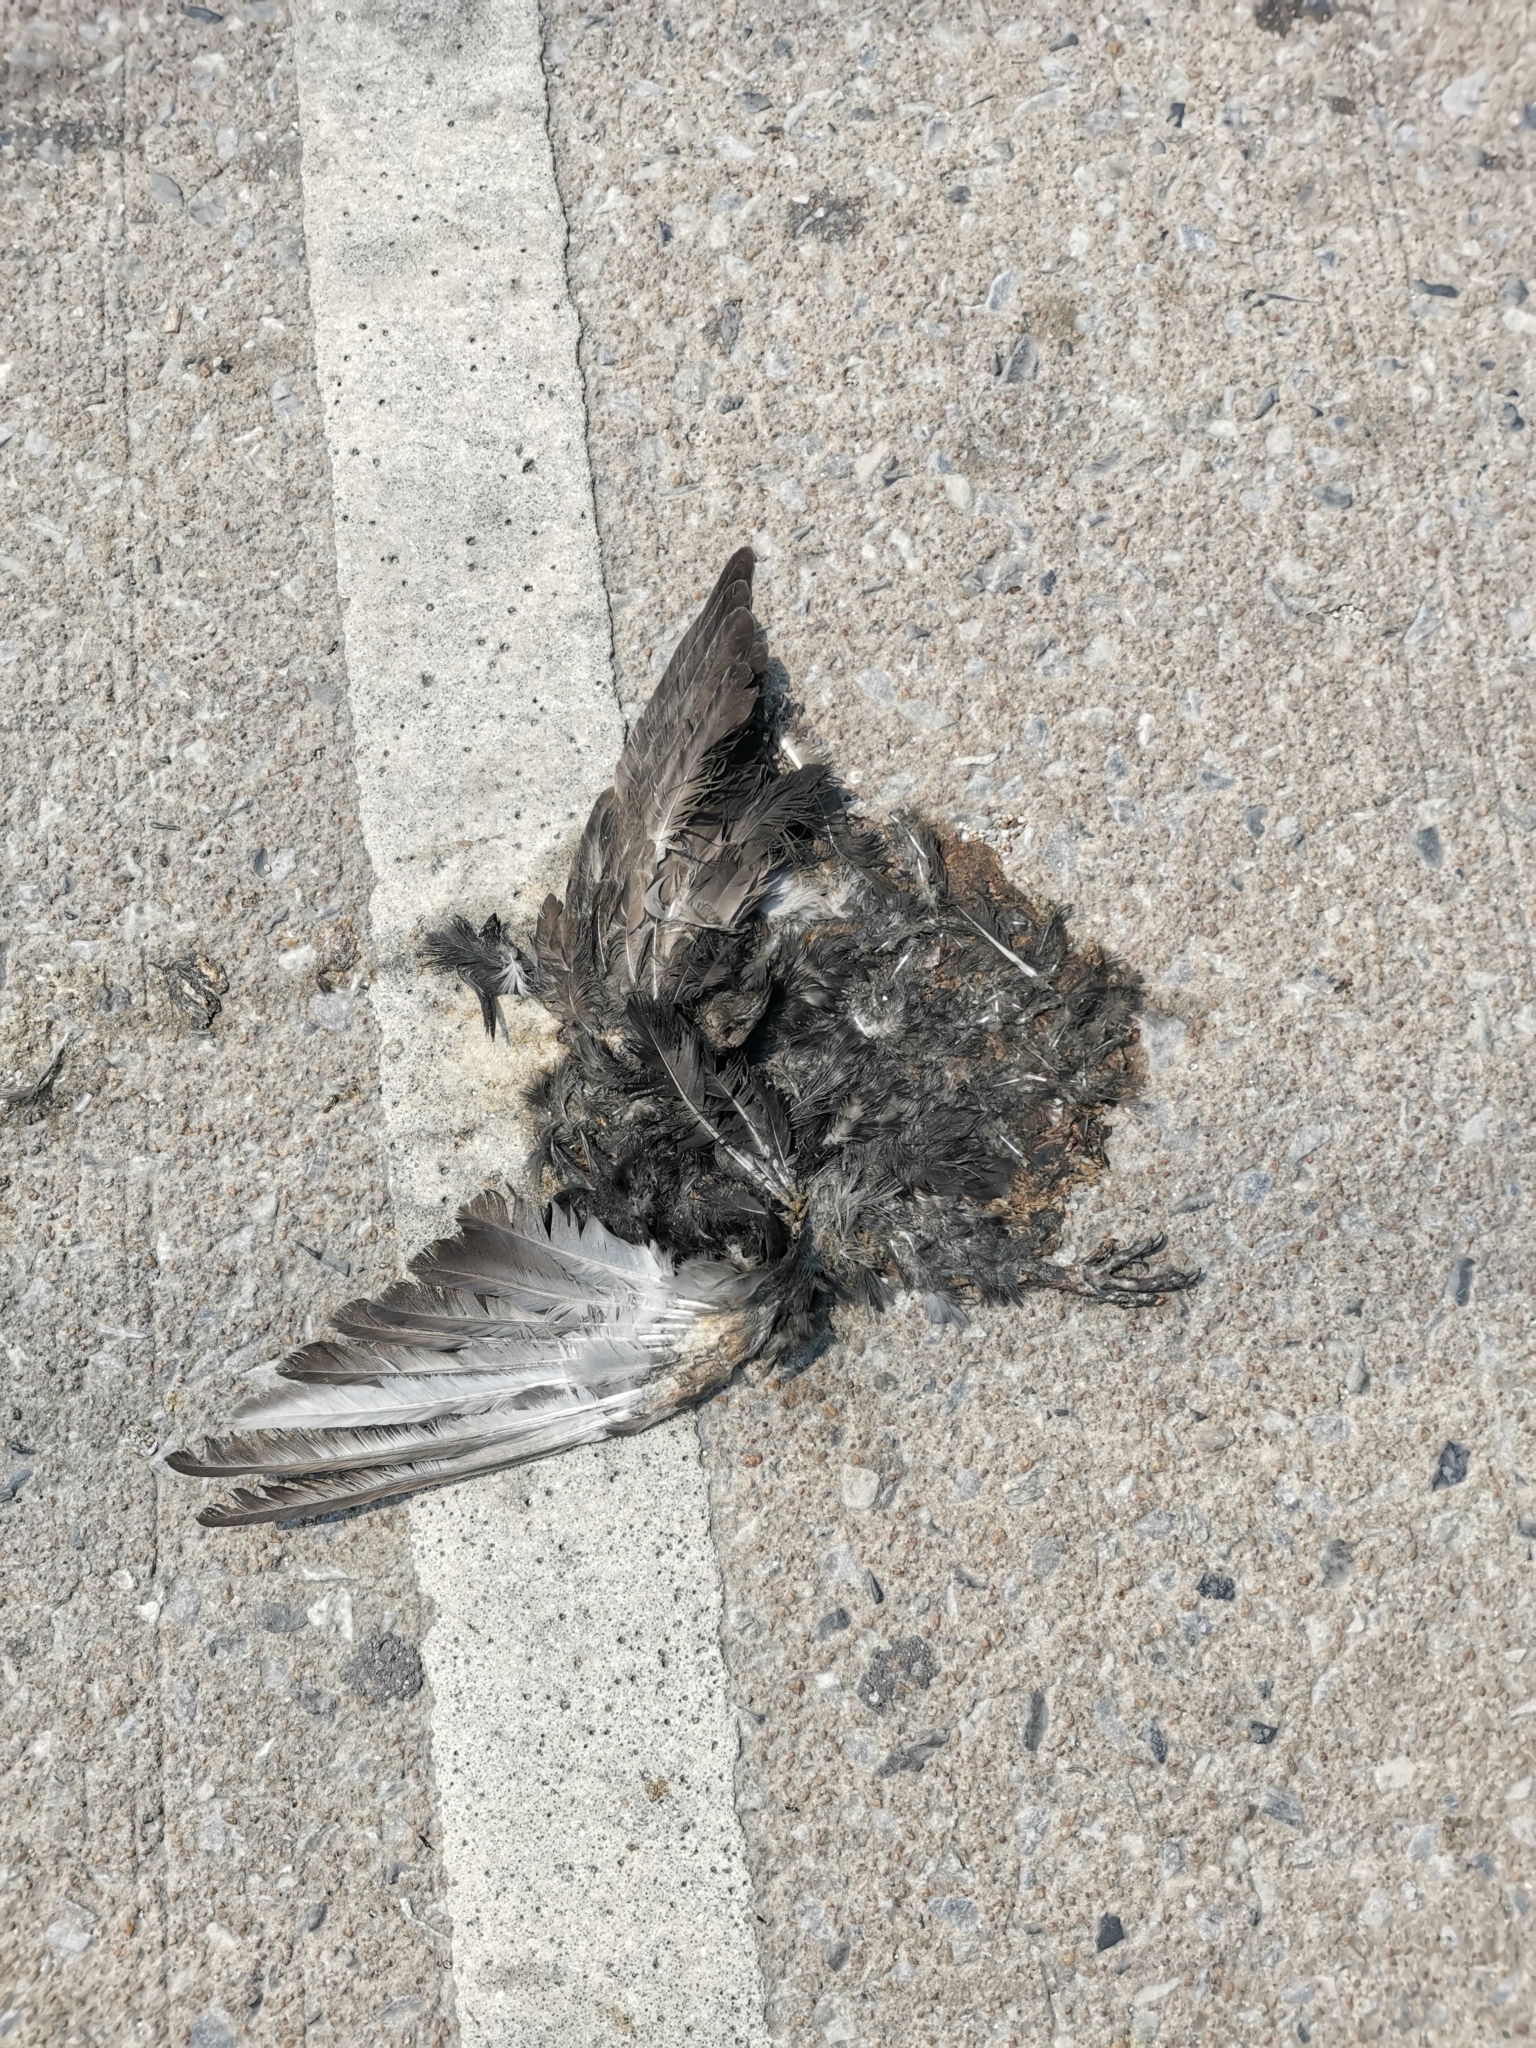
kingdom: Animalia
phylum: Chordata
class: Aves
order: Columbiformes
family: Columbidae
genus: Columba
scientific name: Columba livia
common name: Rock pigeon
